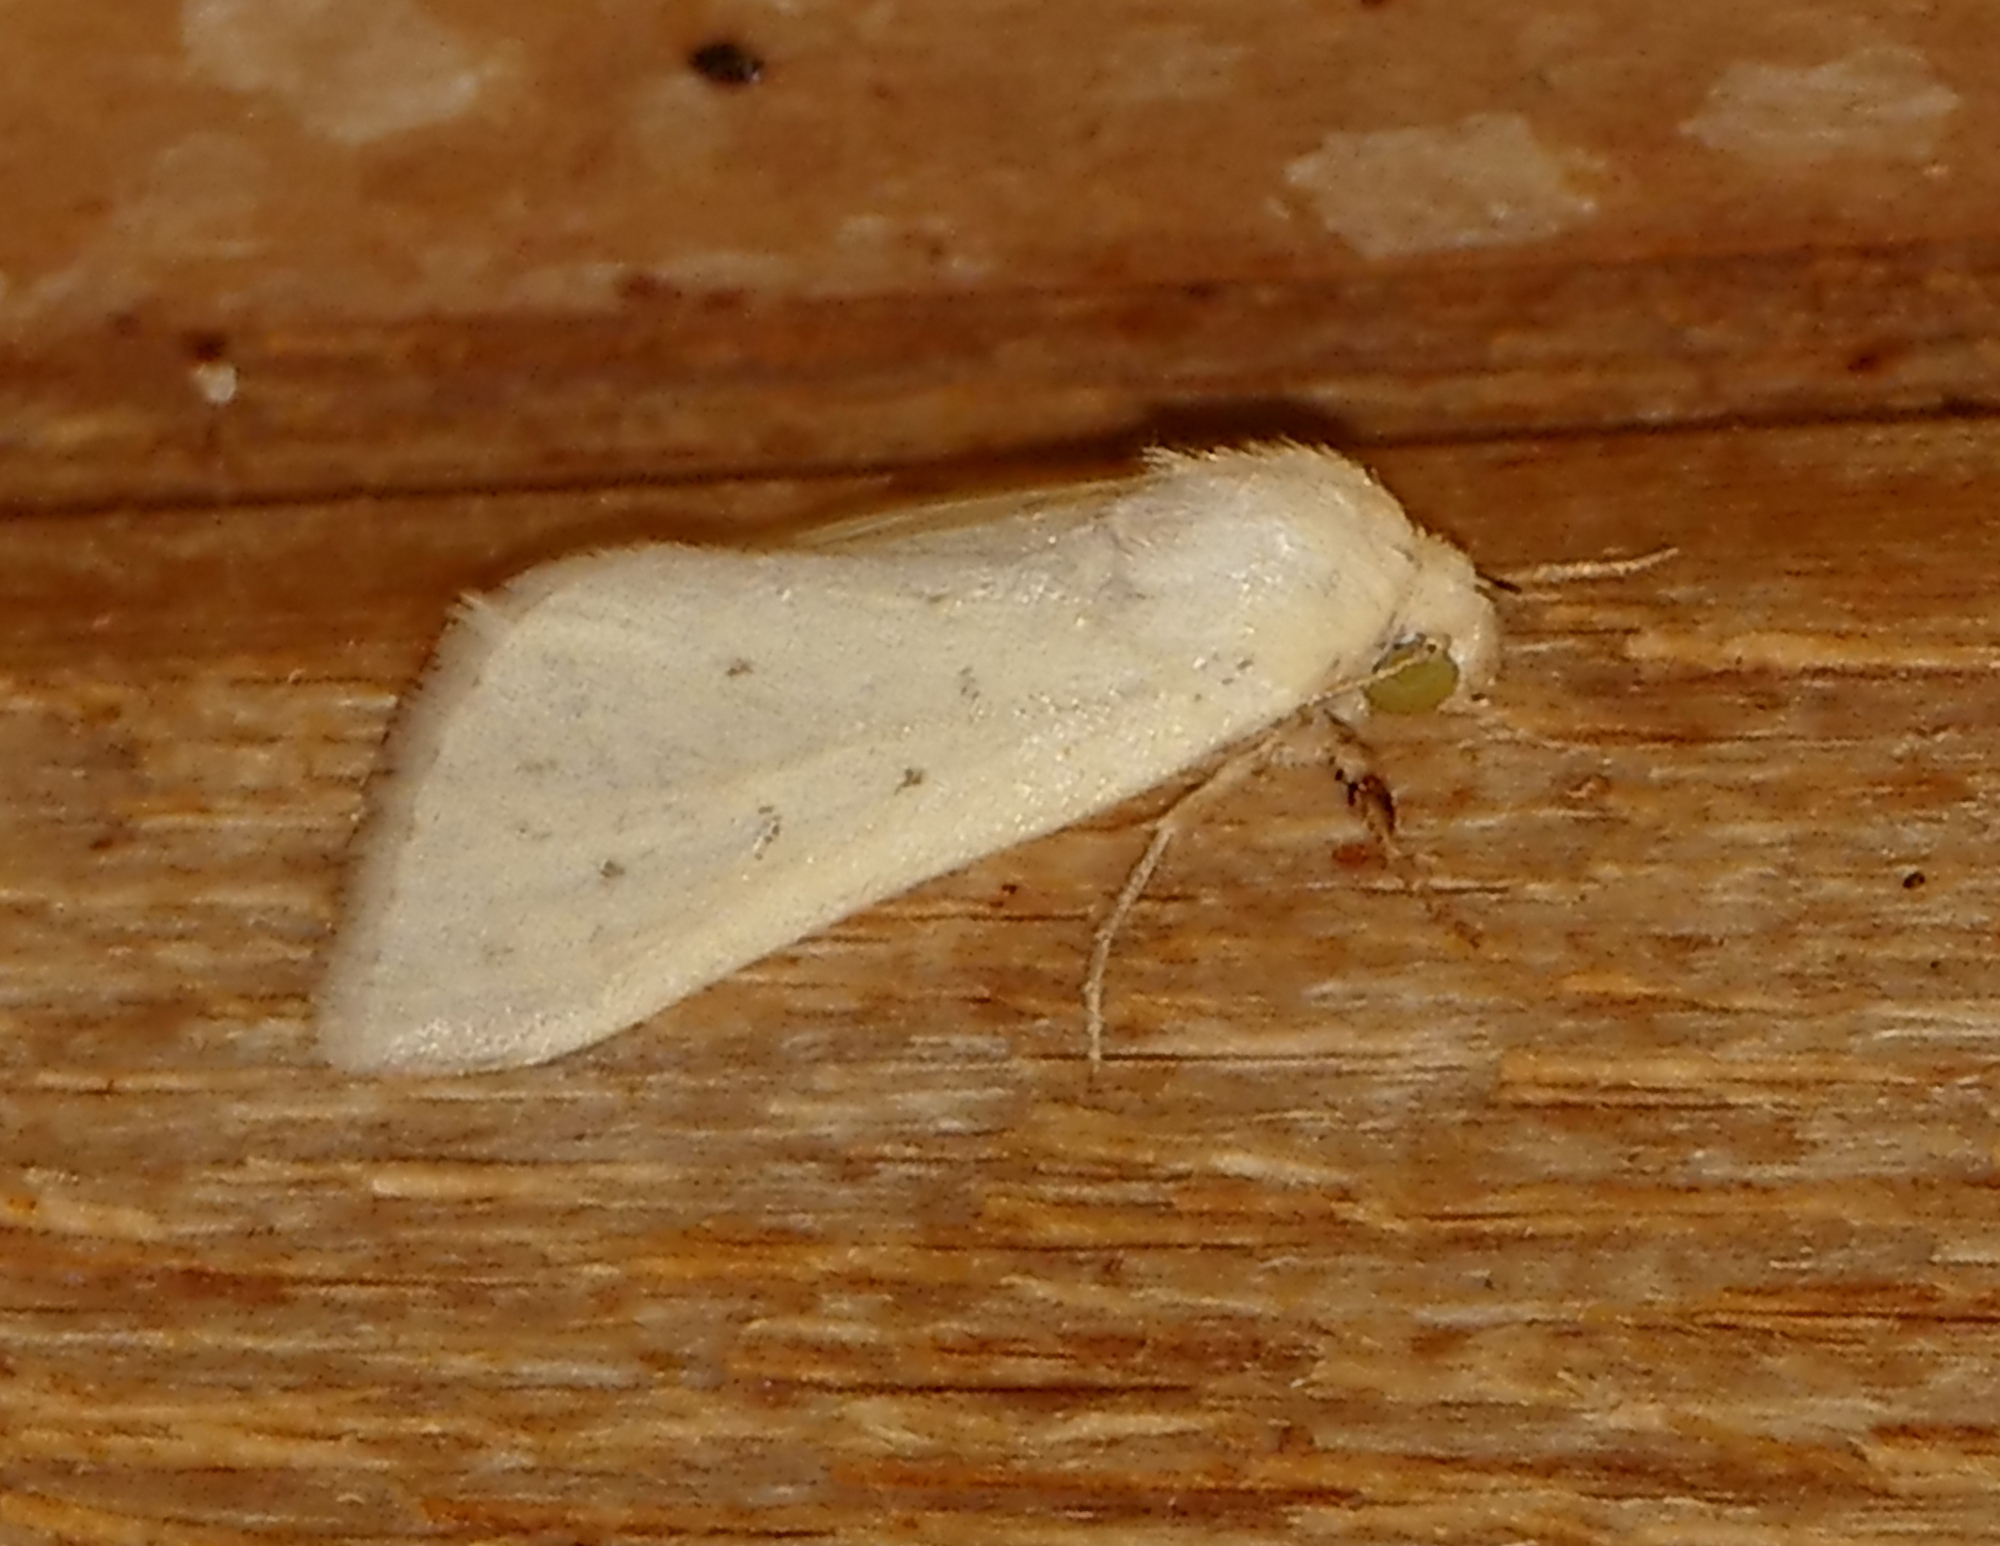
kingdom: Animalia
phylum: Arthropoda
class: Insecta
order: Lepidoptera
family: Noctuidae
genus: Schinia
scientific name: Schinia luxa
